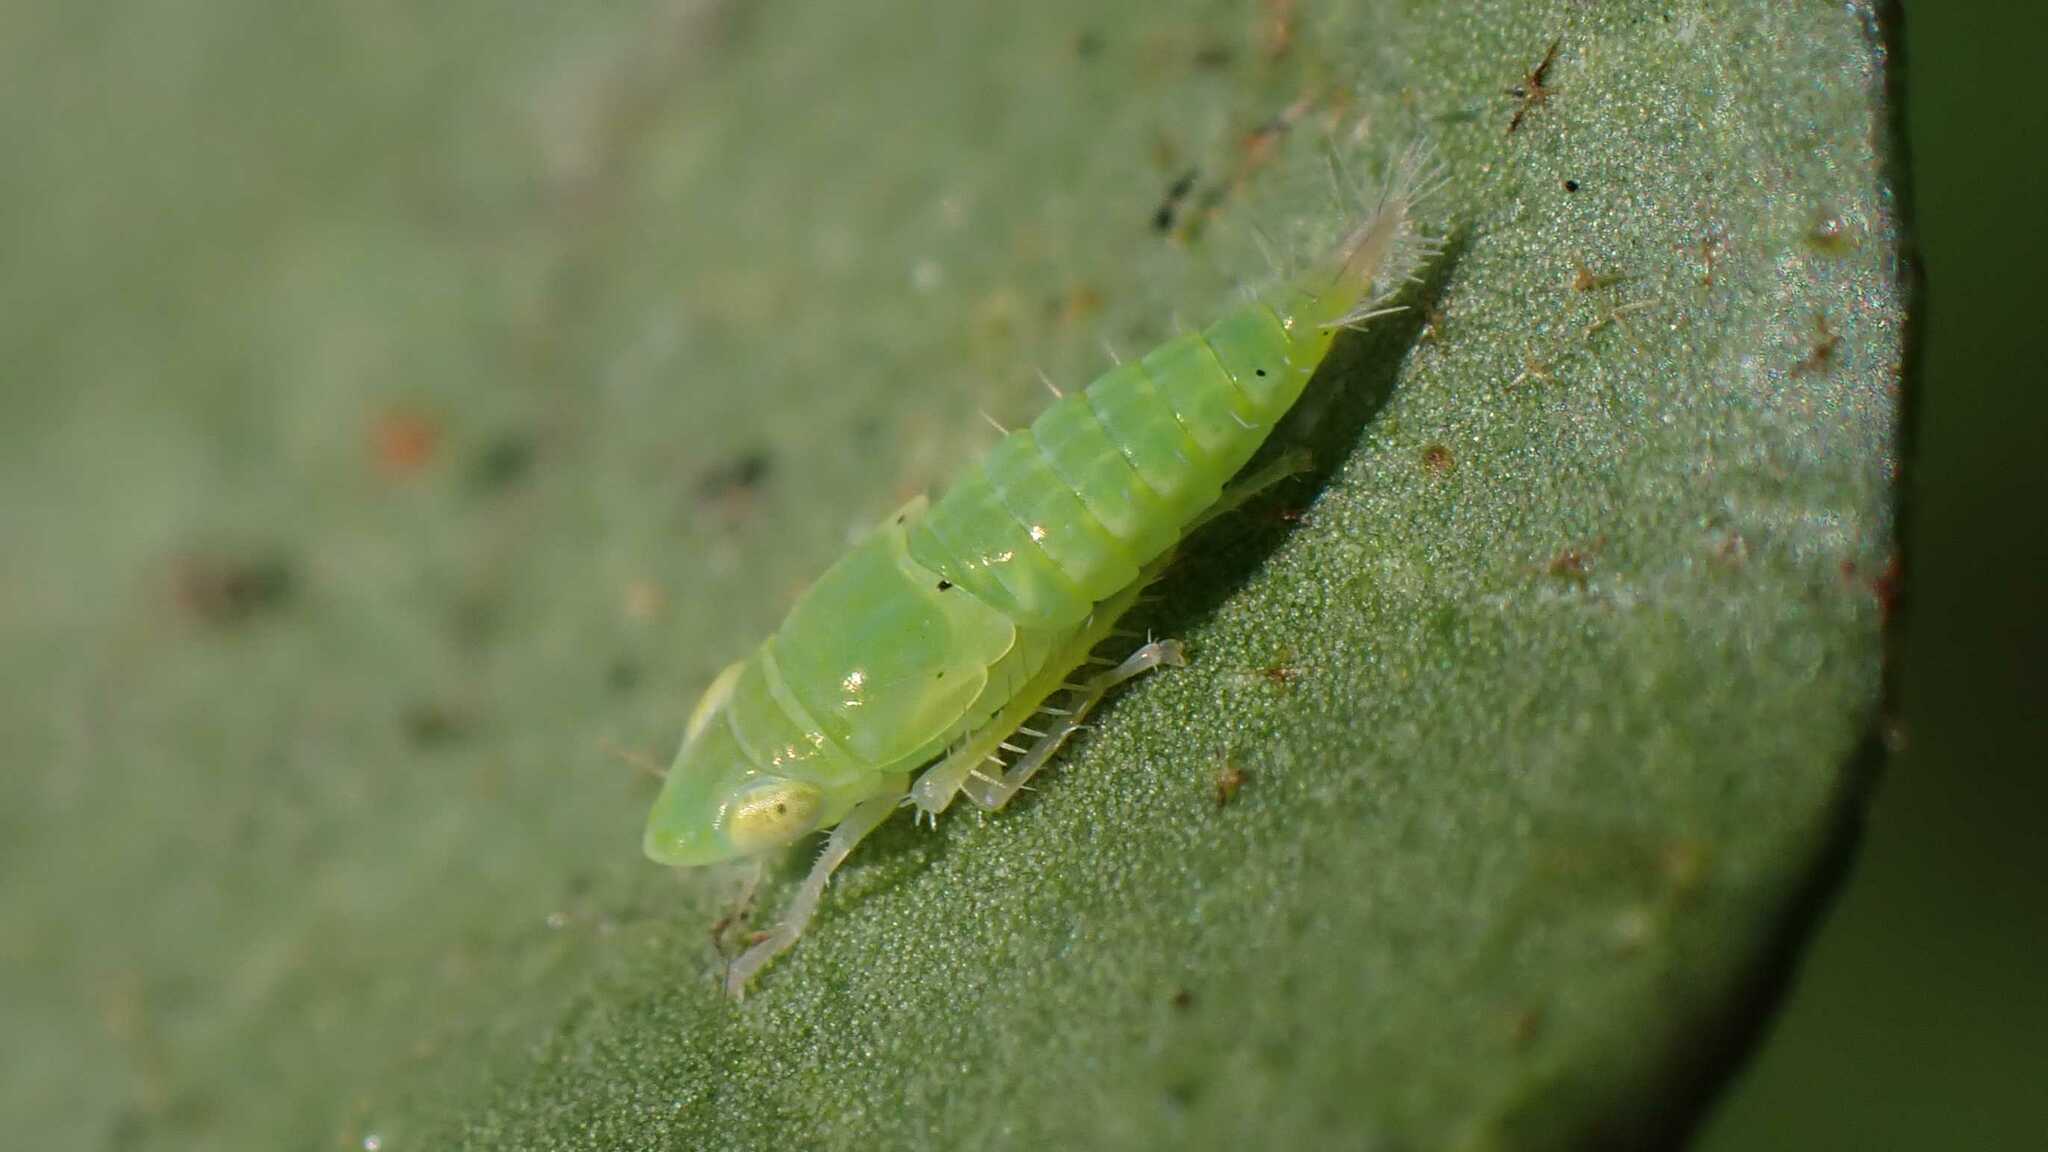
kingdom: Animalia
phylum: Arthropoda
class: Insecta
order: Hemiptera
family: Cicadellidae
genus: Synophropsis
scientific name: Synophropsis lauri
